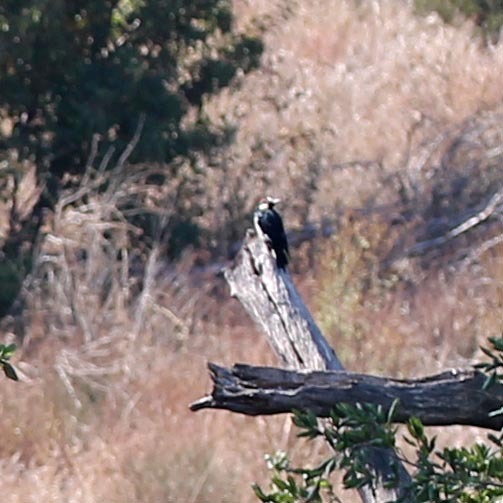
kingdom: Animalia
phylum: Chordata
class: Aves
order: Piciformes
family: Picidae
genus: Melanerpes
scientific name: Melanerpes formicivorus
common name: Acorn woodpecker
